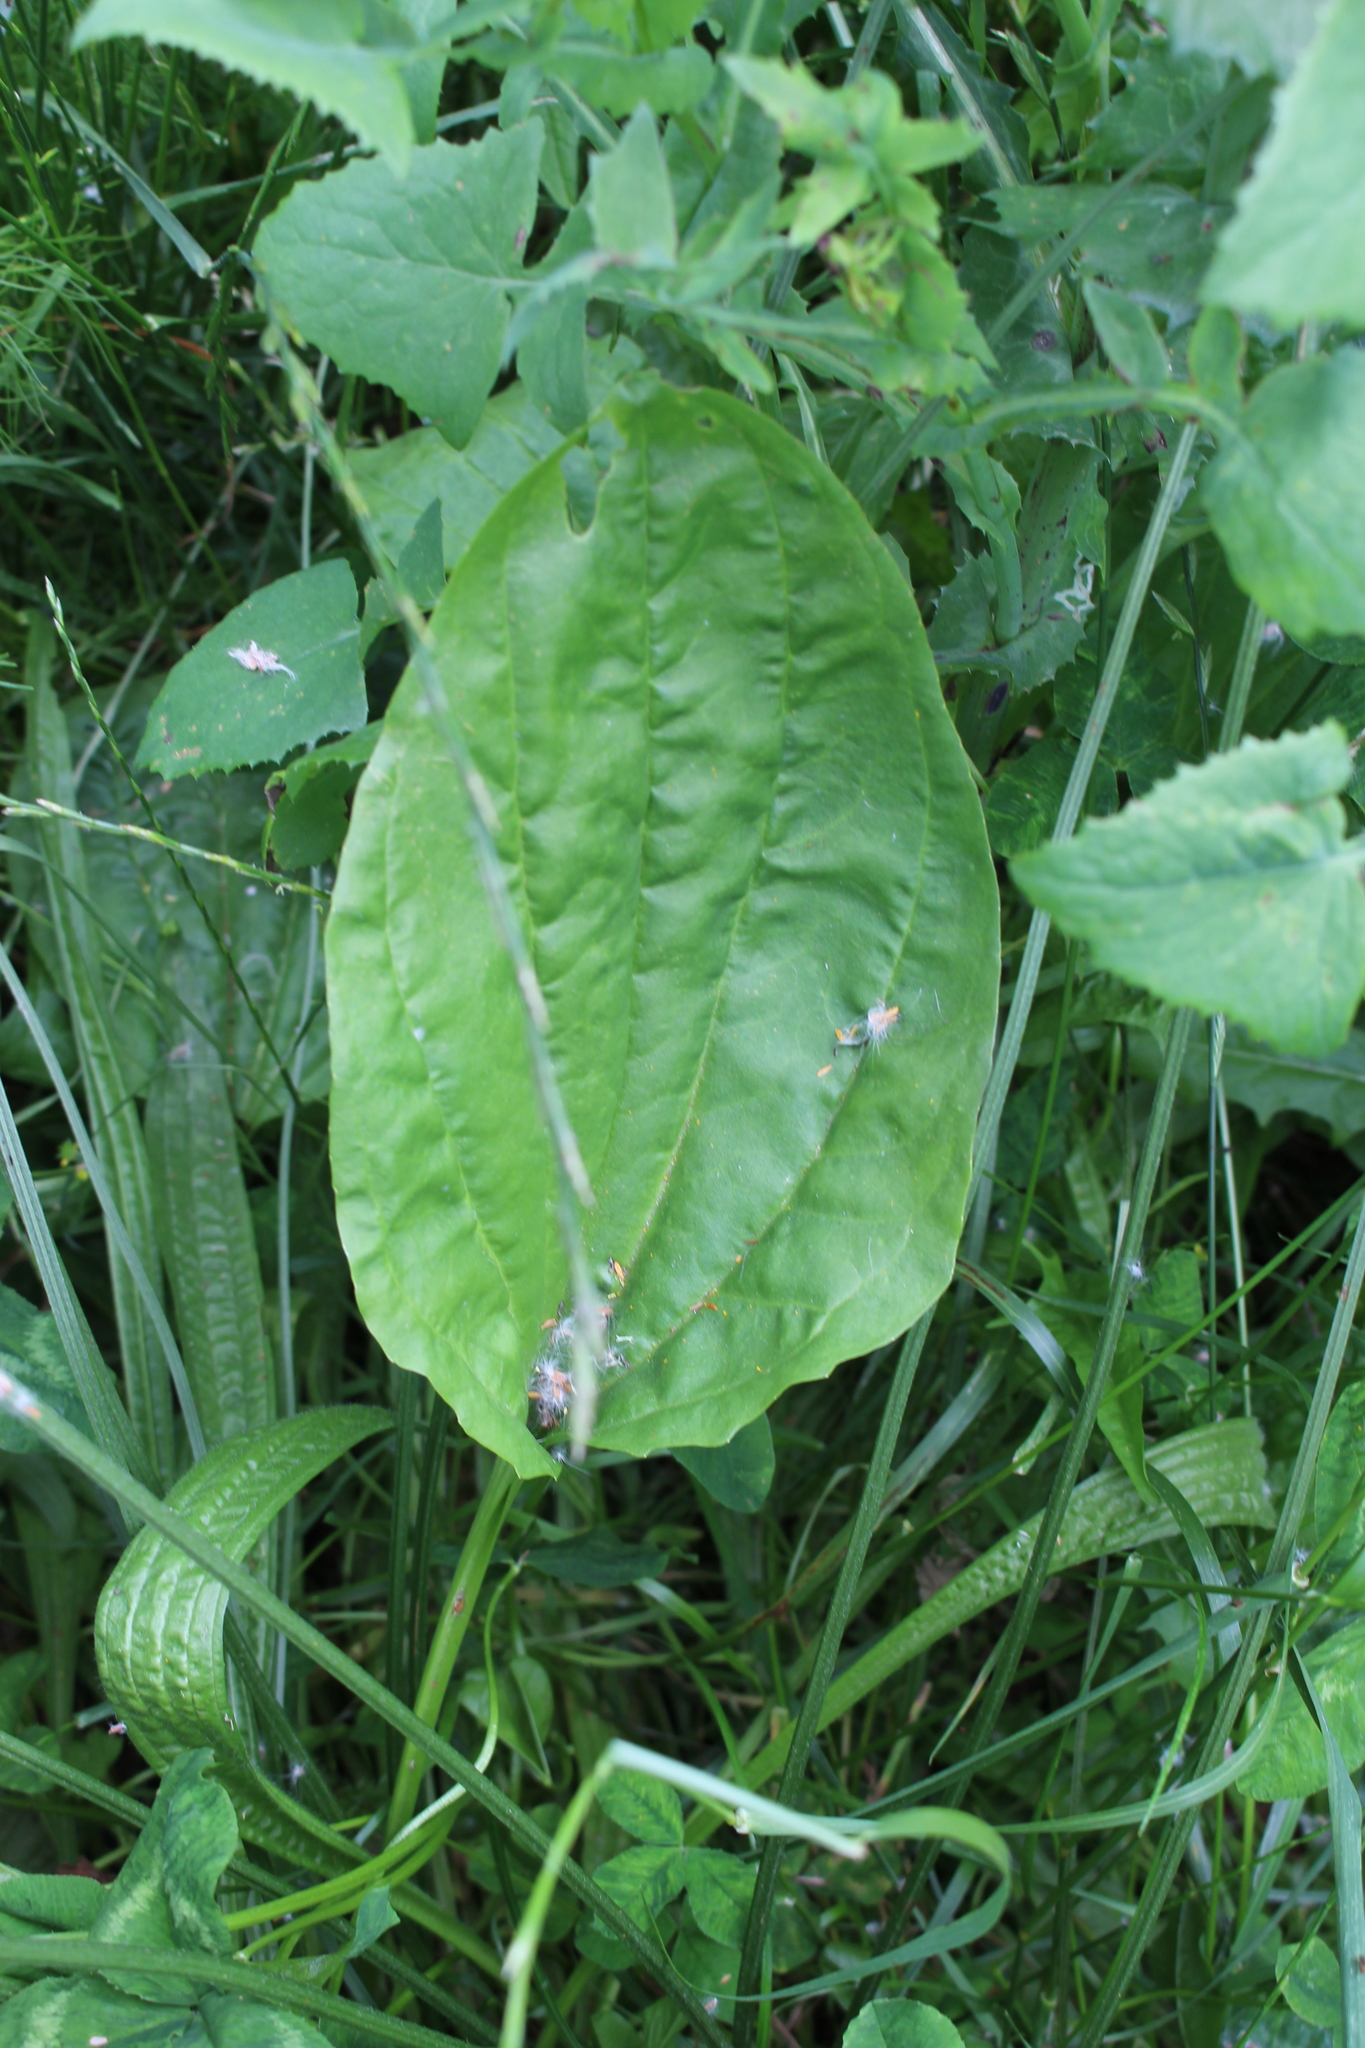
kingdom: Plantae
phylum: Tracheophyta
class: Magnoliopsida
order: Lamiales
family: Plantaginaceae
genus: Plantago
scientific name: Plantago major
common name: Common plantain
